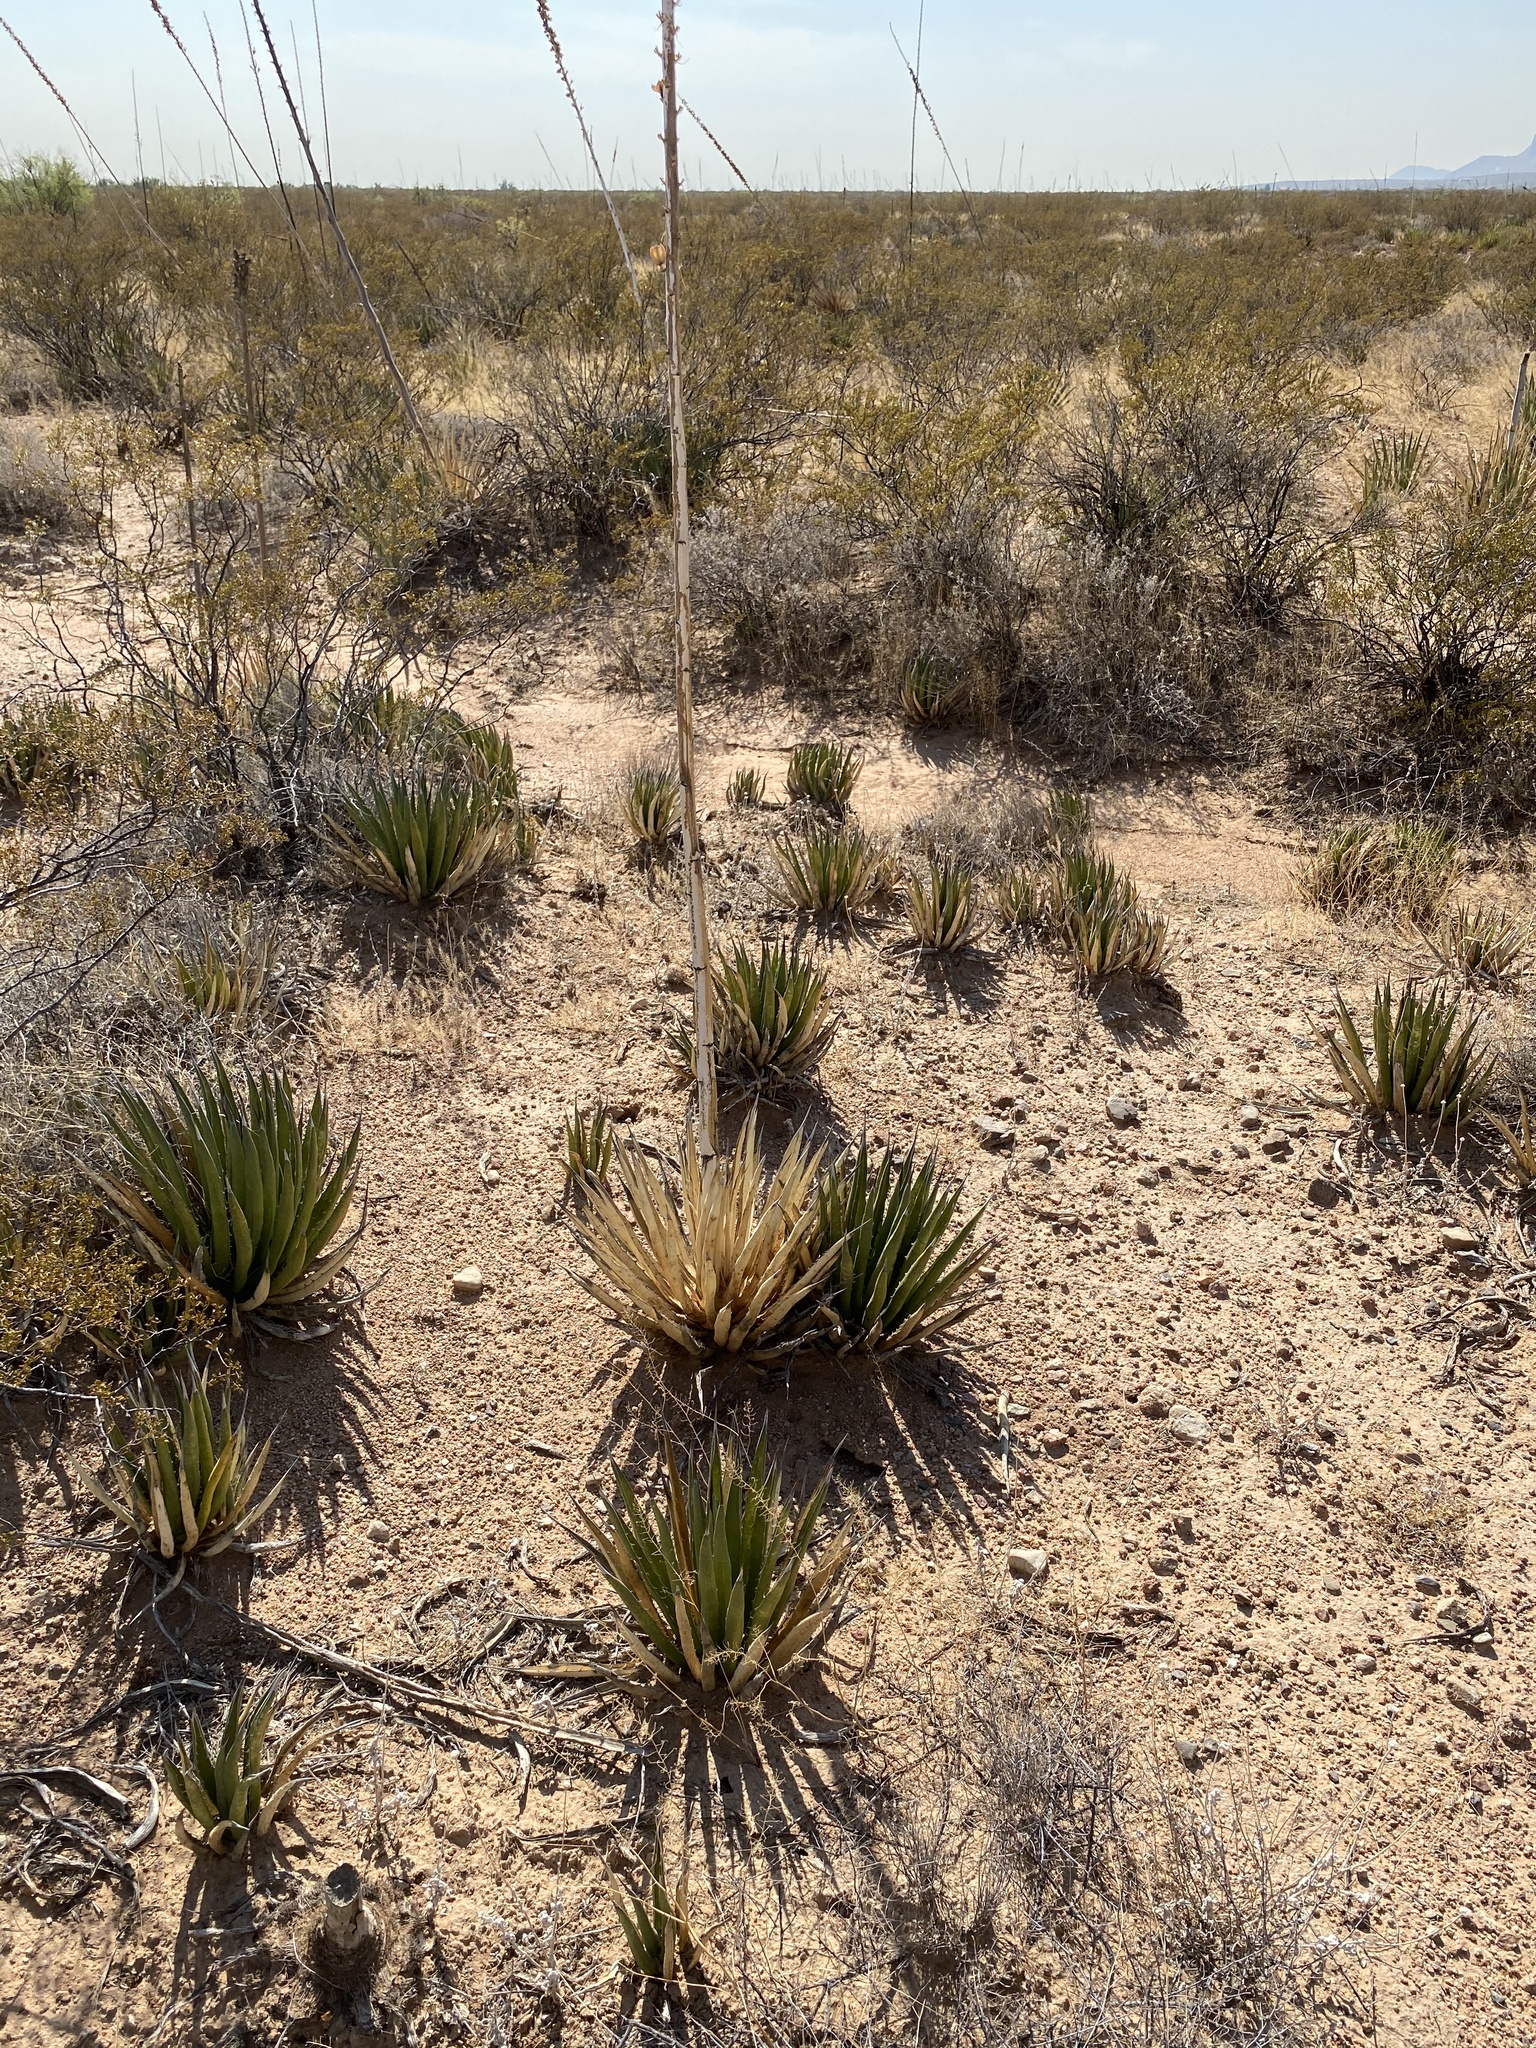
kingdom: Plantae
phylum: Tracheophyta
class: Liliopsida
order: Asparagales
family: Asparagaceae
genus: Agave
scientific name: Agave lechuguilla
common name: Lecheguilla agave
